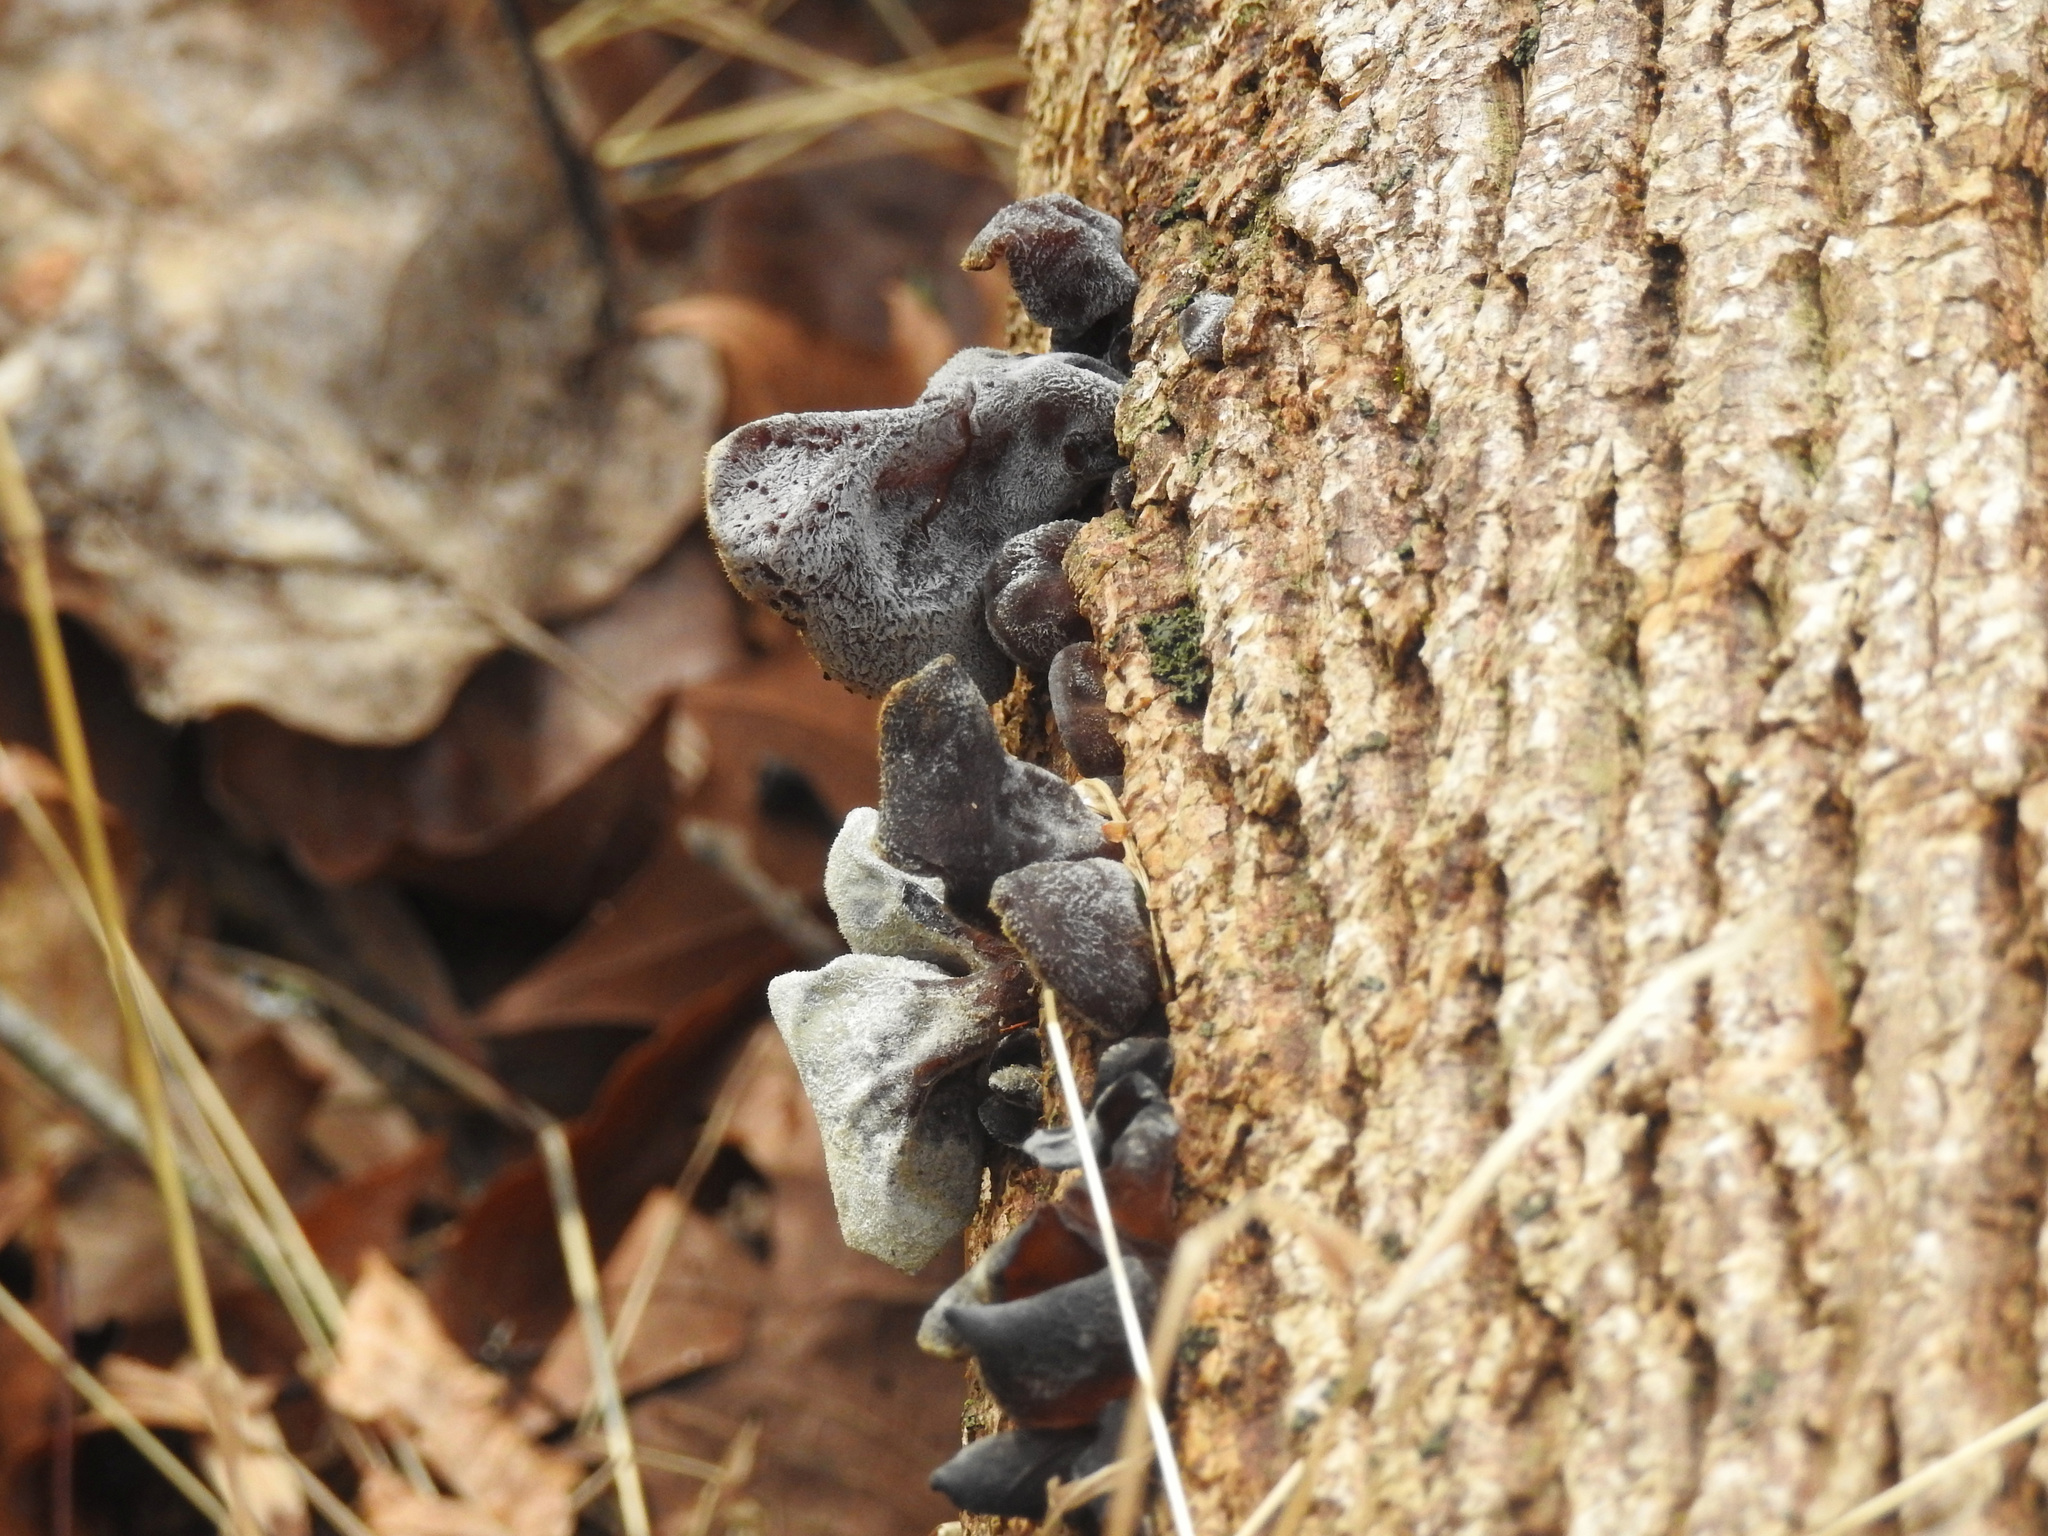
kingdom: Fungi
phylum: Basidiomycota
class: Agaricomycetes
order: Auriculariales
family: Auriculariaceae
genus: Auricularia
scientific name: Auricularia angiospermarum
